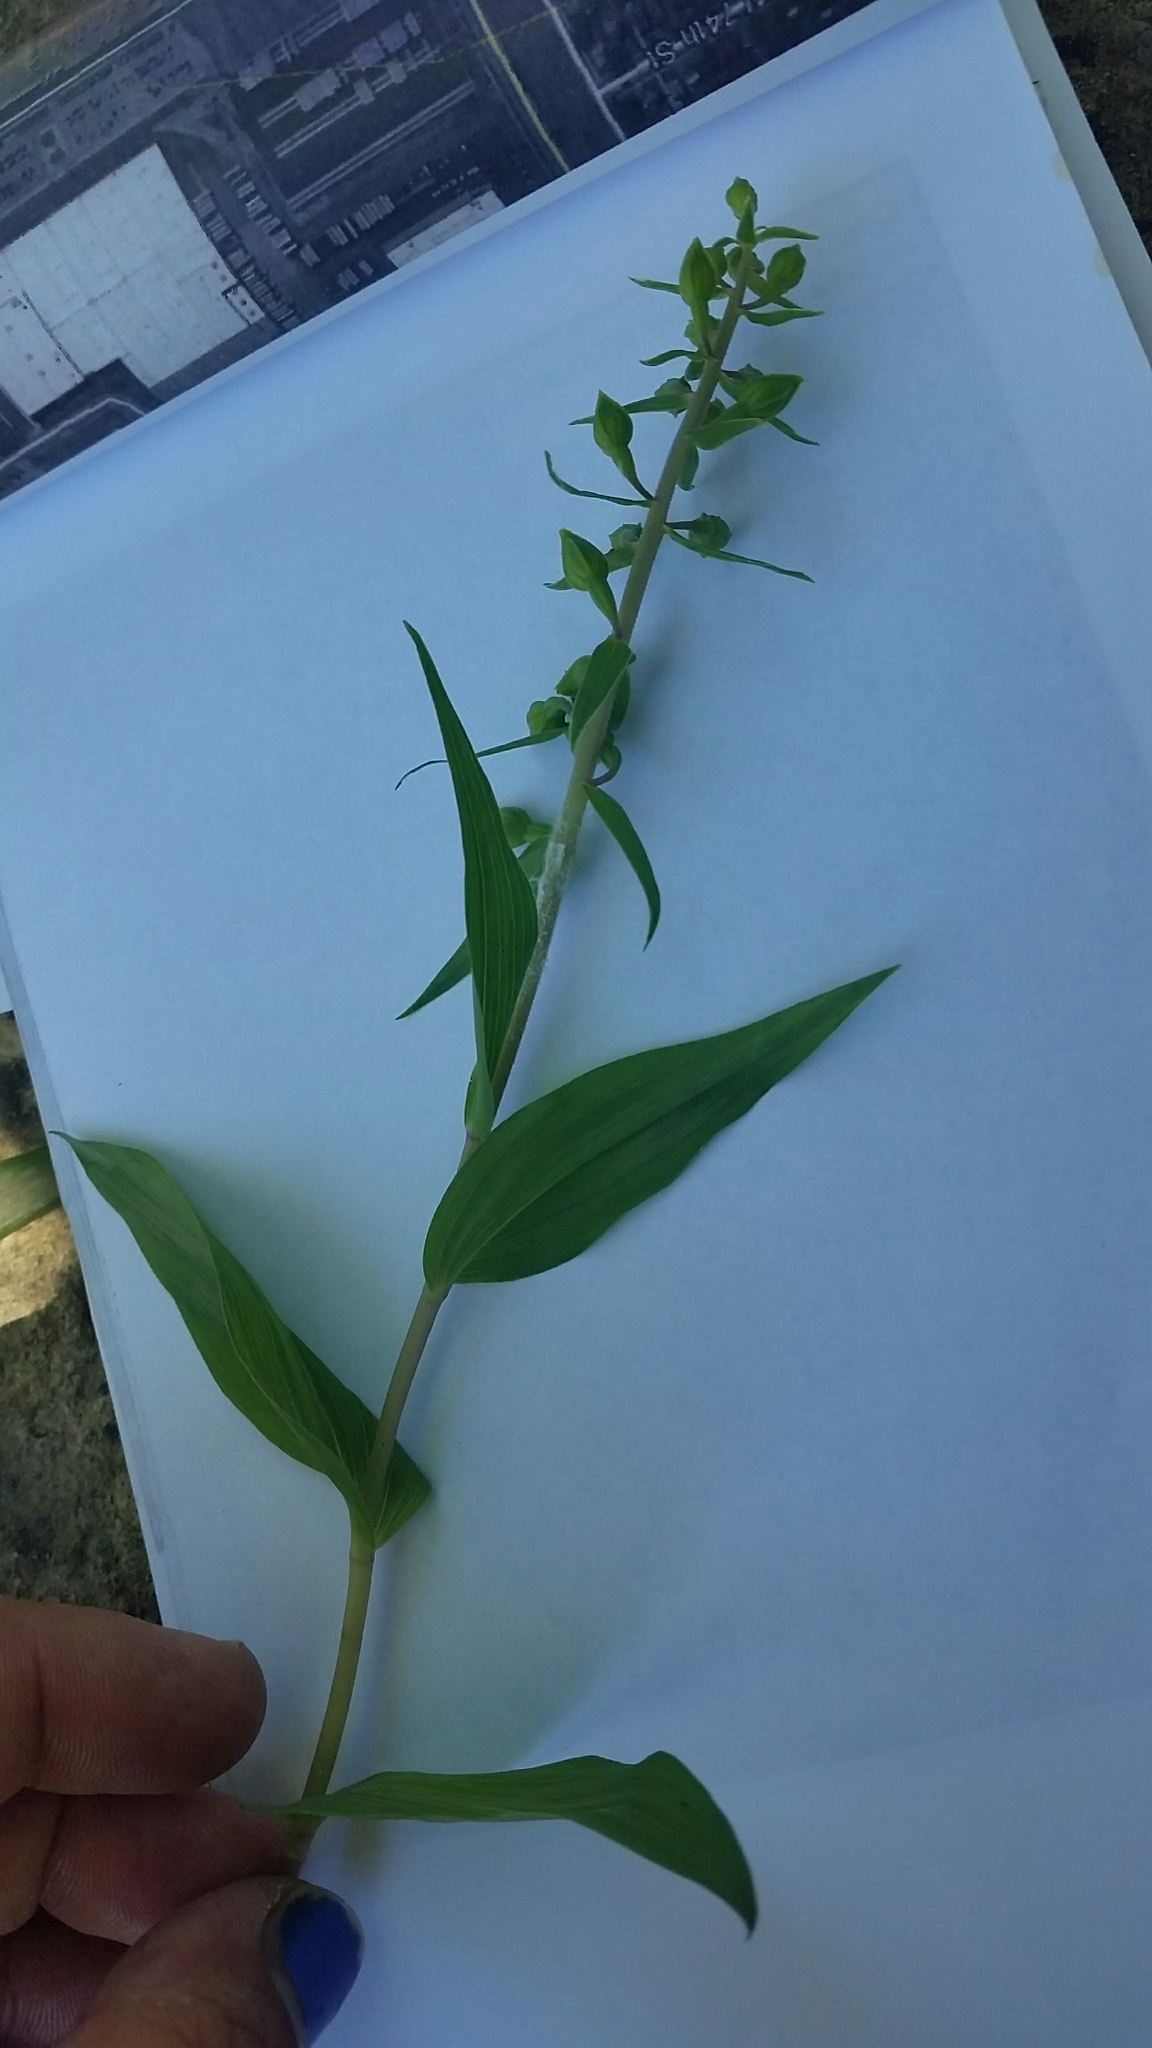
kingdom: Plantae
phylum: Tracheophyta
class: Liliopsida
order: Asparagales
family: Orchidaceae
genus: Epipactis
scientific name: Epipactis helleborine
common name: Broad-leaved helleborine
